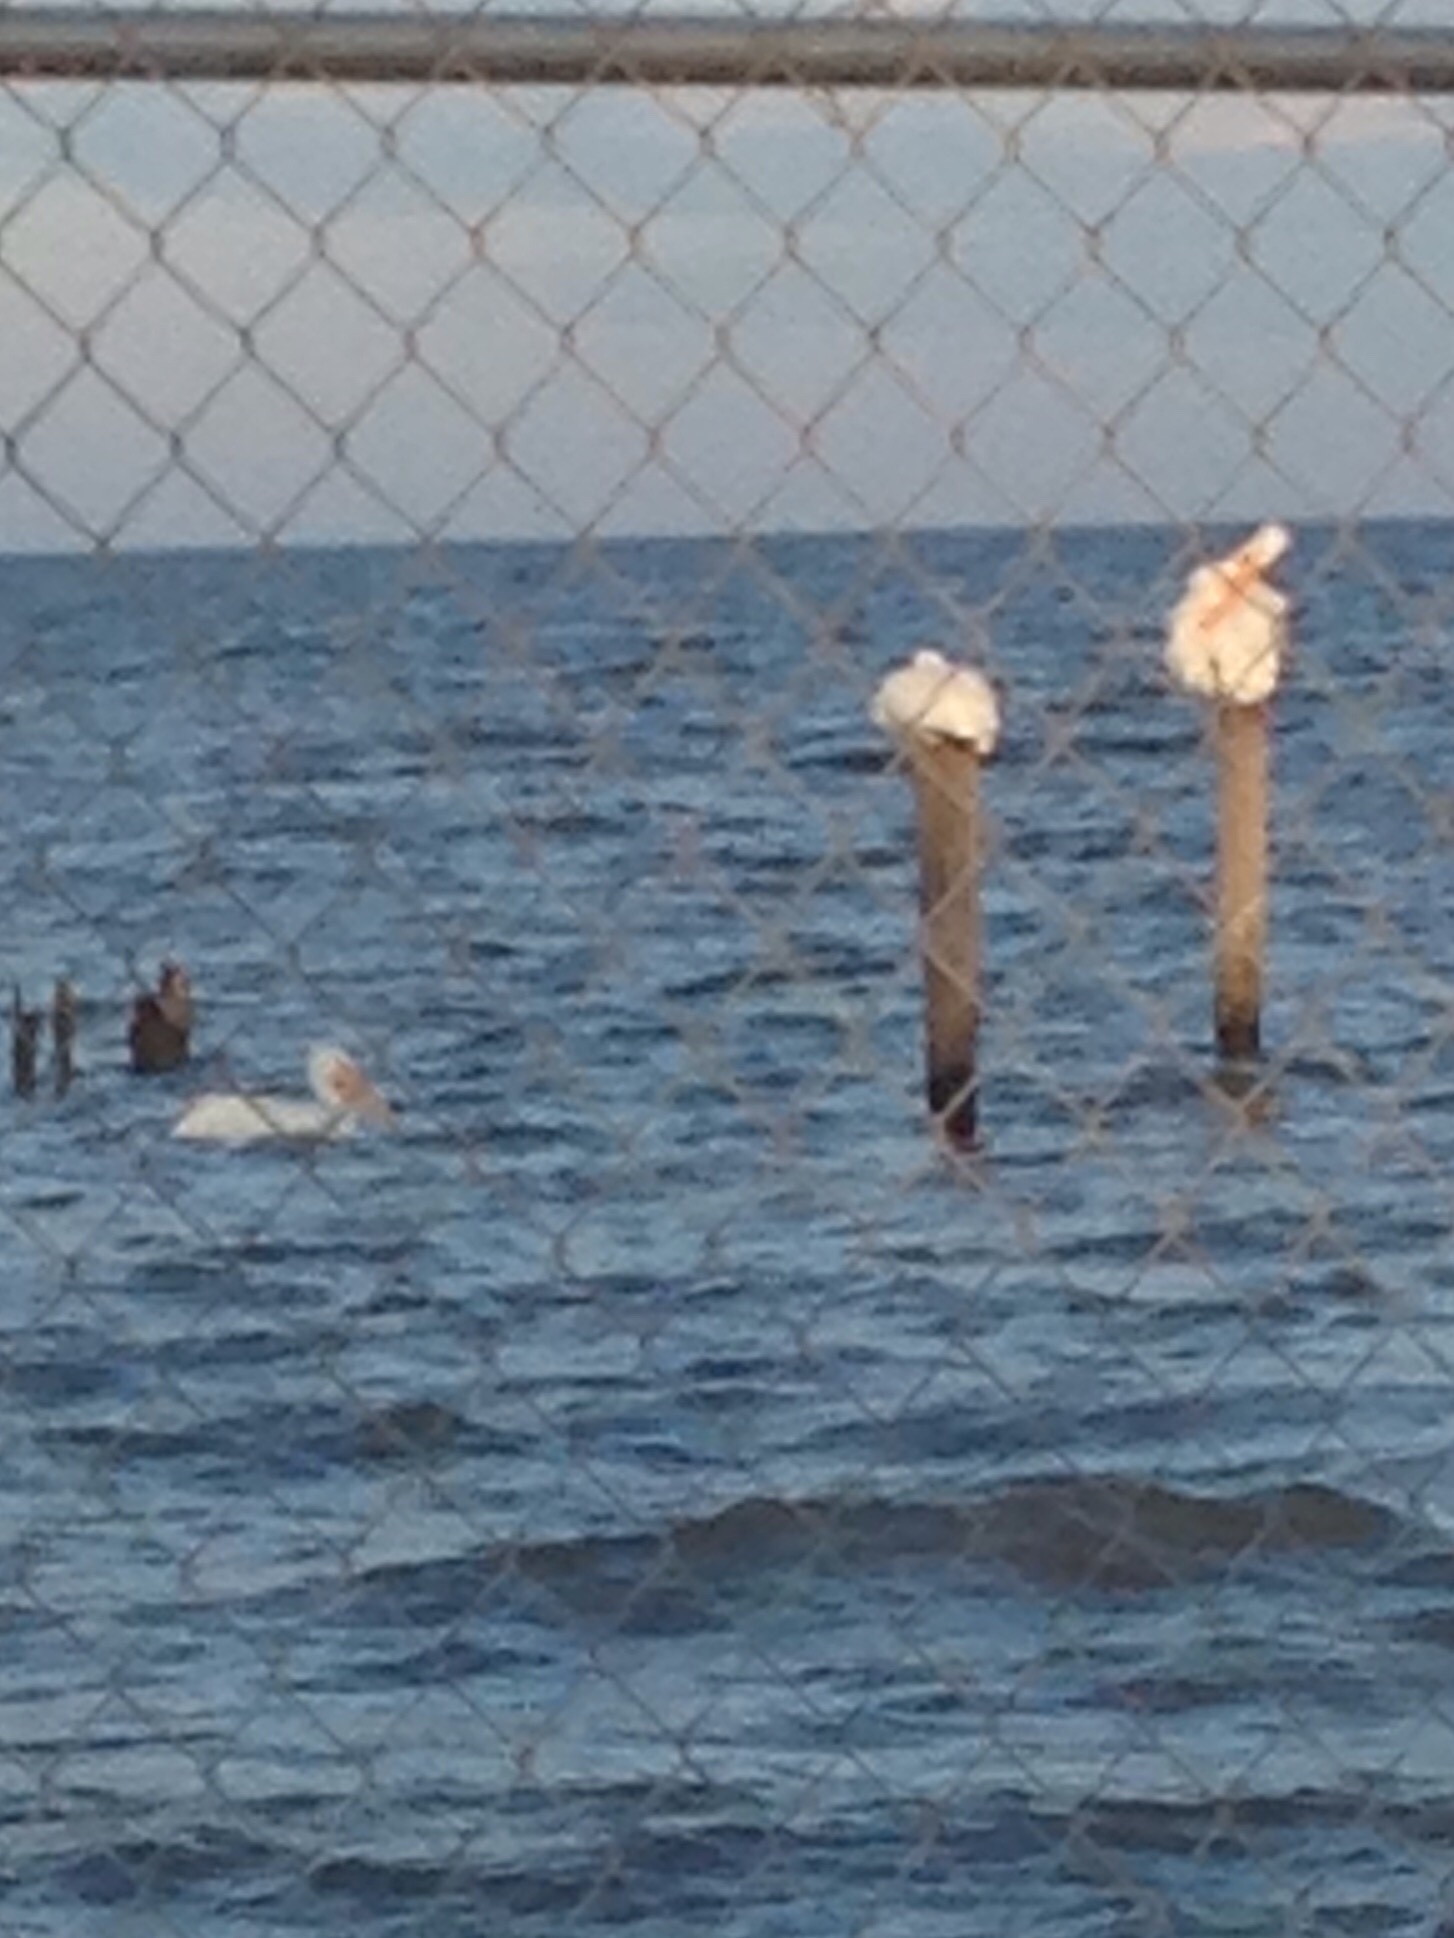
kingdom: Animalia
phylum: Chordata
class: Aves
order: Pelecaniformes
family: Pelecanidae
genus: Pelecanus
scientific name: Pelecanus erythrorhynchos
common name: American white pelican
